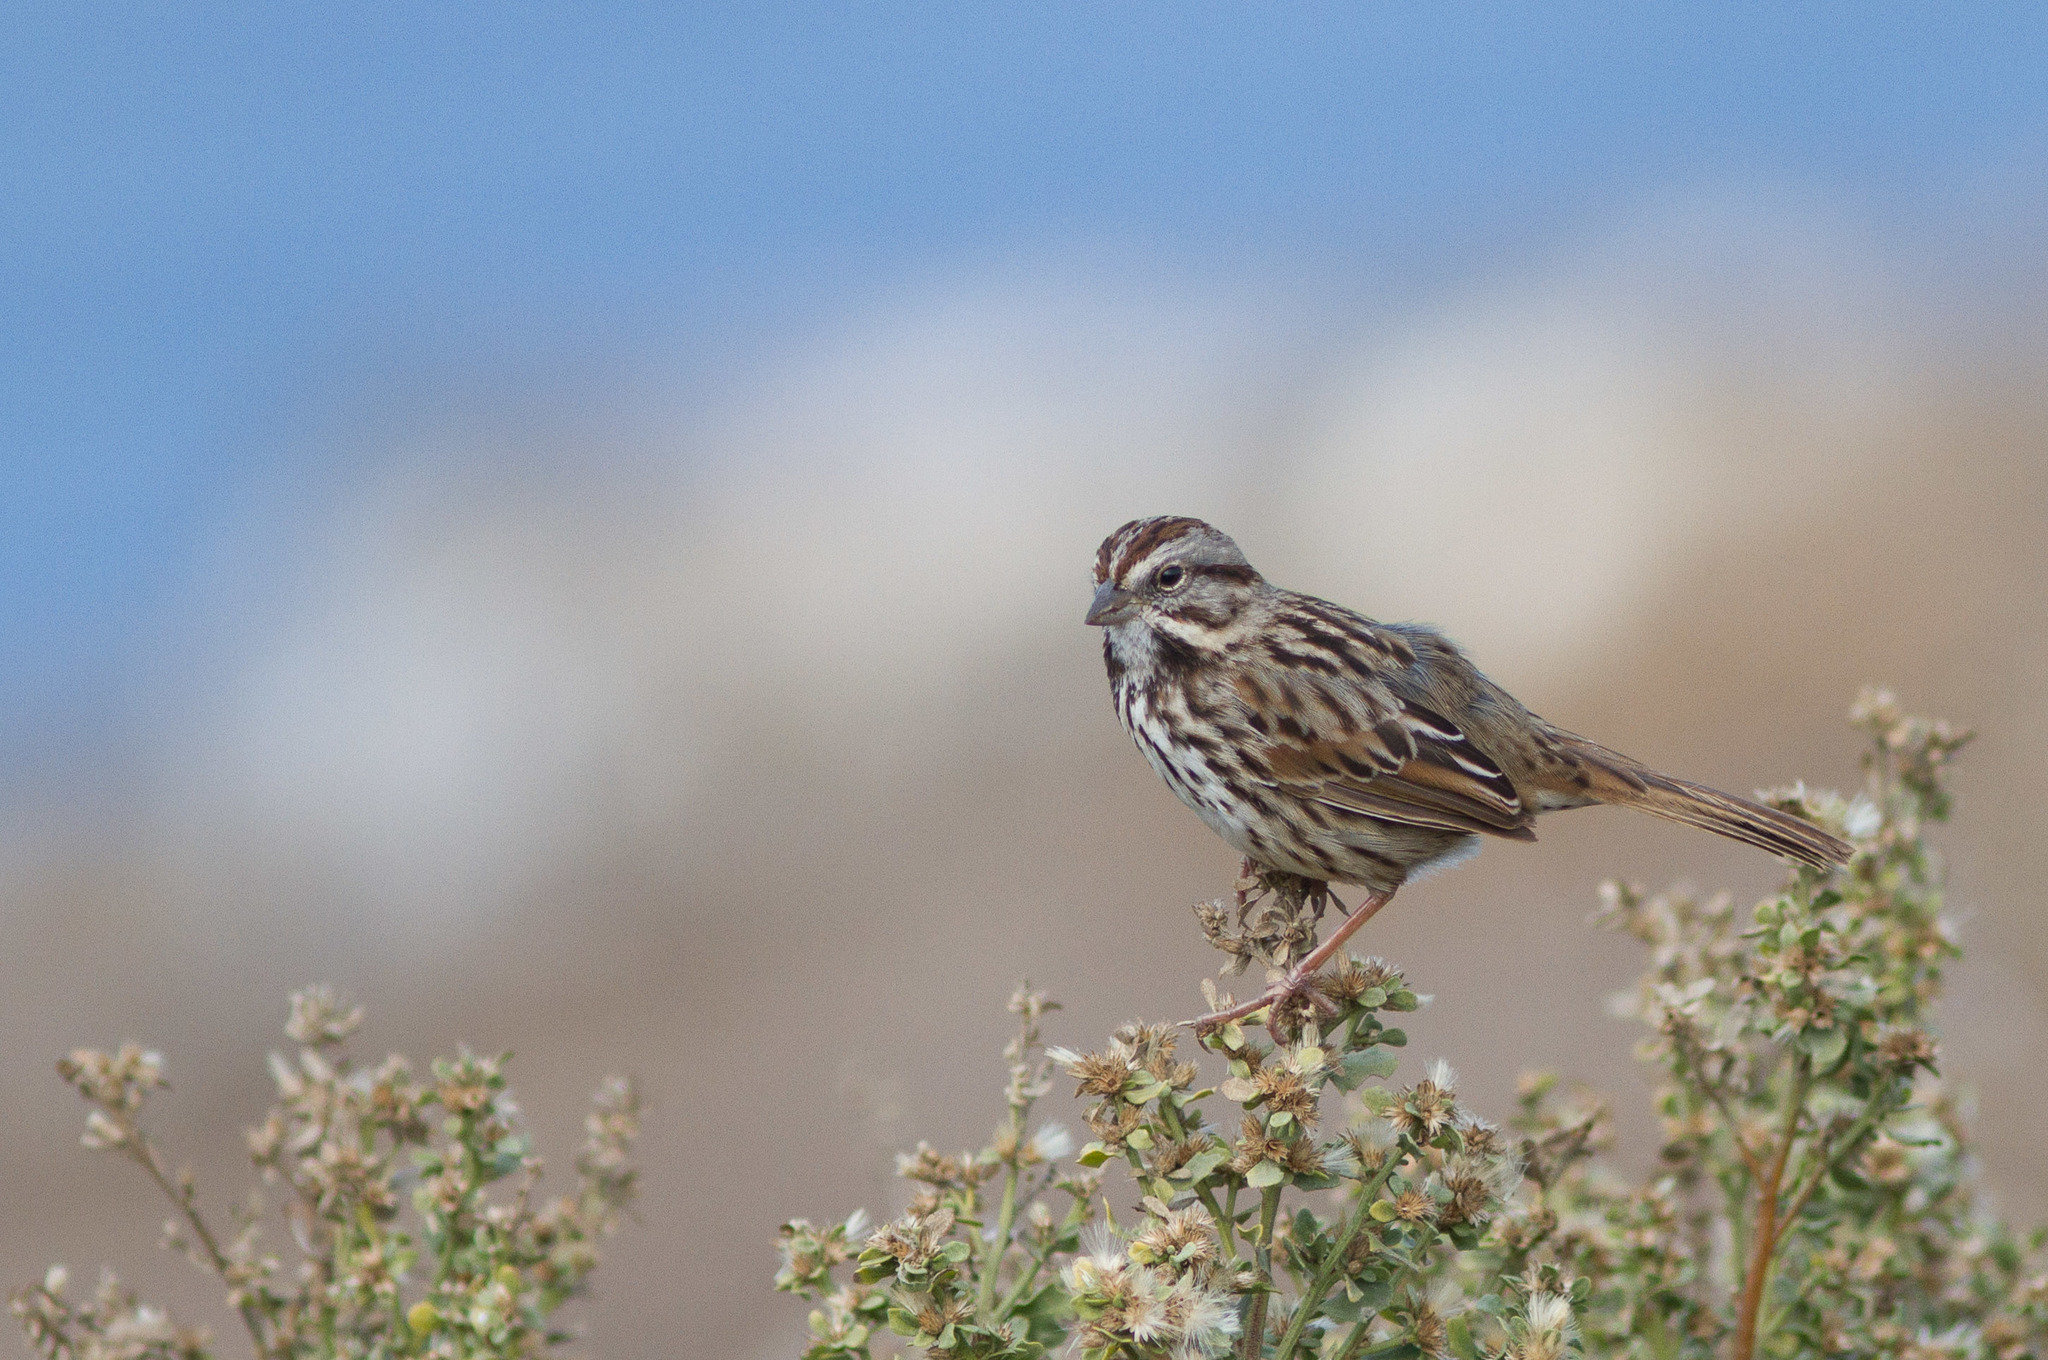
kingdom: Animalia
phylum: Chordata
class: Aves
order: Passeriformes
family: Passerellidae
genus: Melospiza
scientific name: Melospiza melodia
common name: Song sparrow
